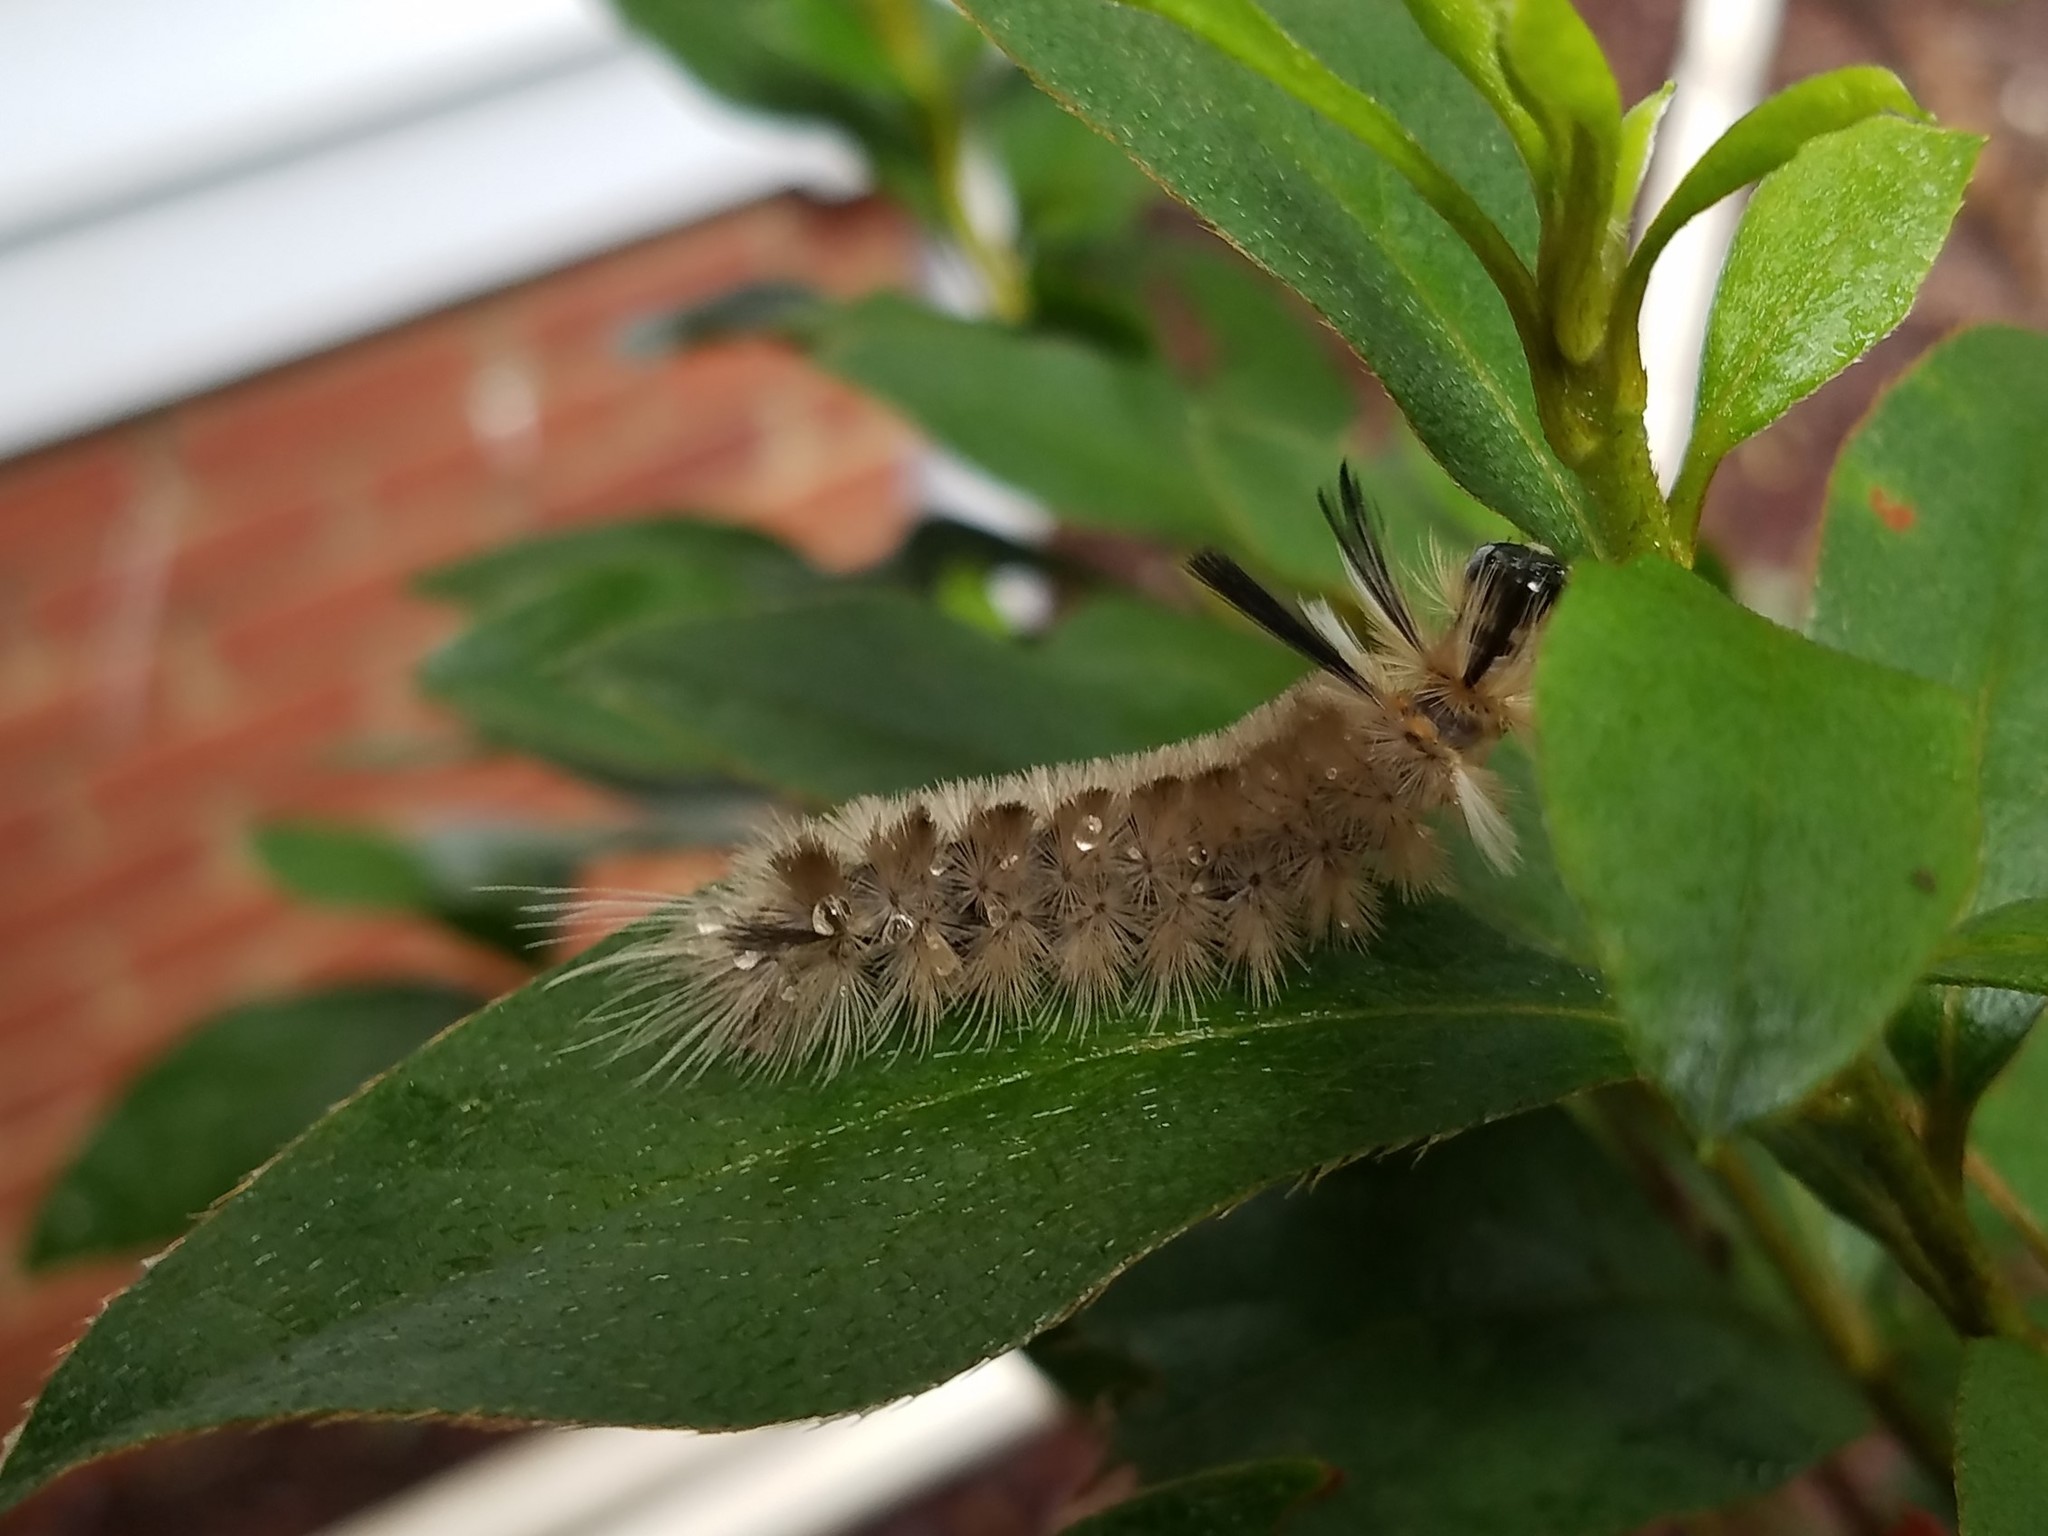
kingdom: Animalia
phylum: Arthropoda
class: Insecta
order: Lepidoptera
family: Erebidae
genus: Halysidota
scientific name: Halysidota tessellaris
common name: Banded tussock moth
